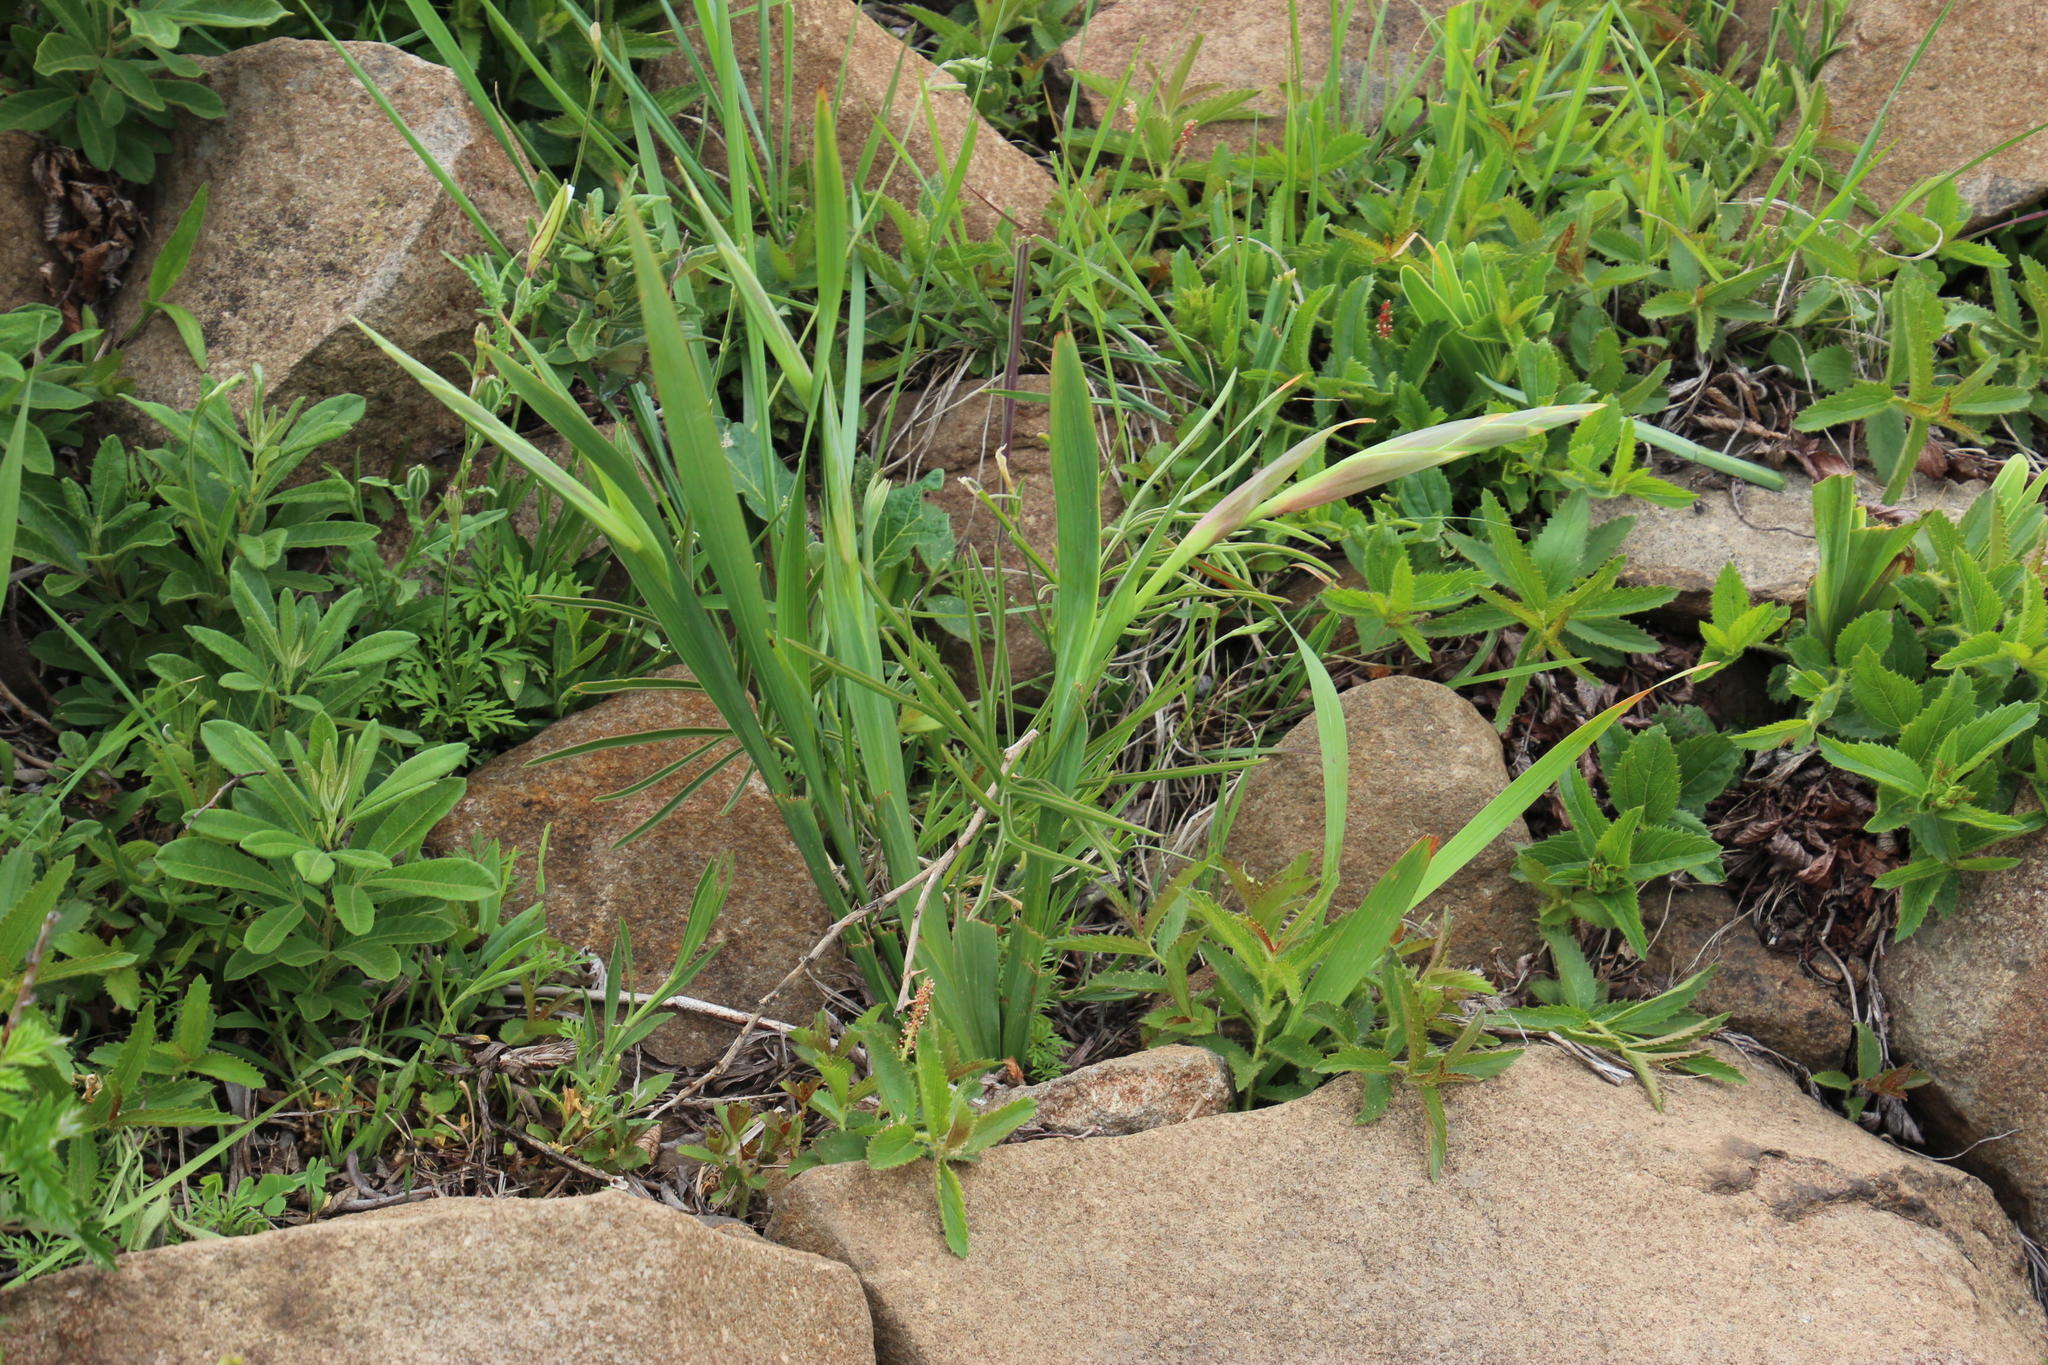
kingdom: Plantae
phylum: Tracheophyta
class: Liliopsida
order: Asparagales
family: Iridaceae
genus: Gladiolus
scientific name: Gladiolus dalenii
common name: Cornflag
